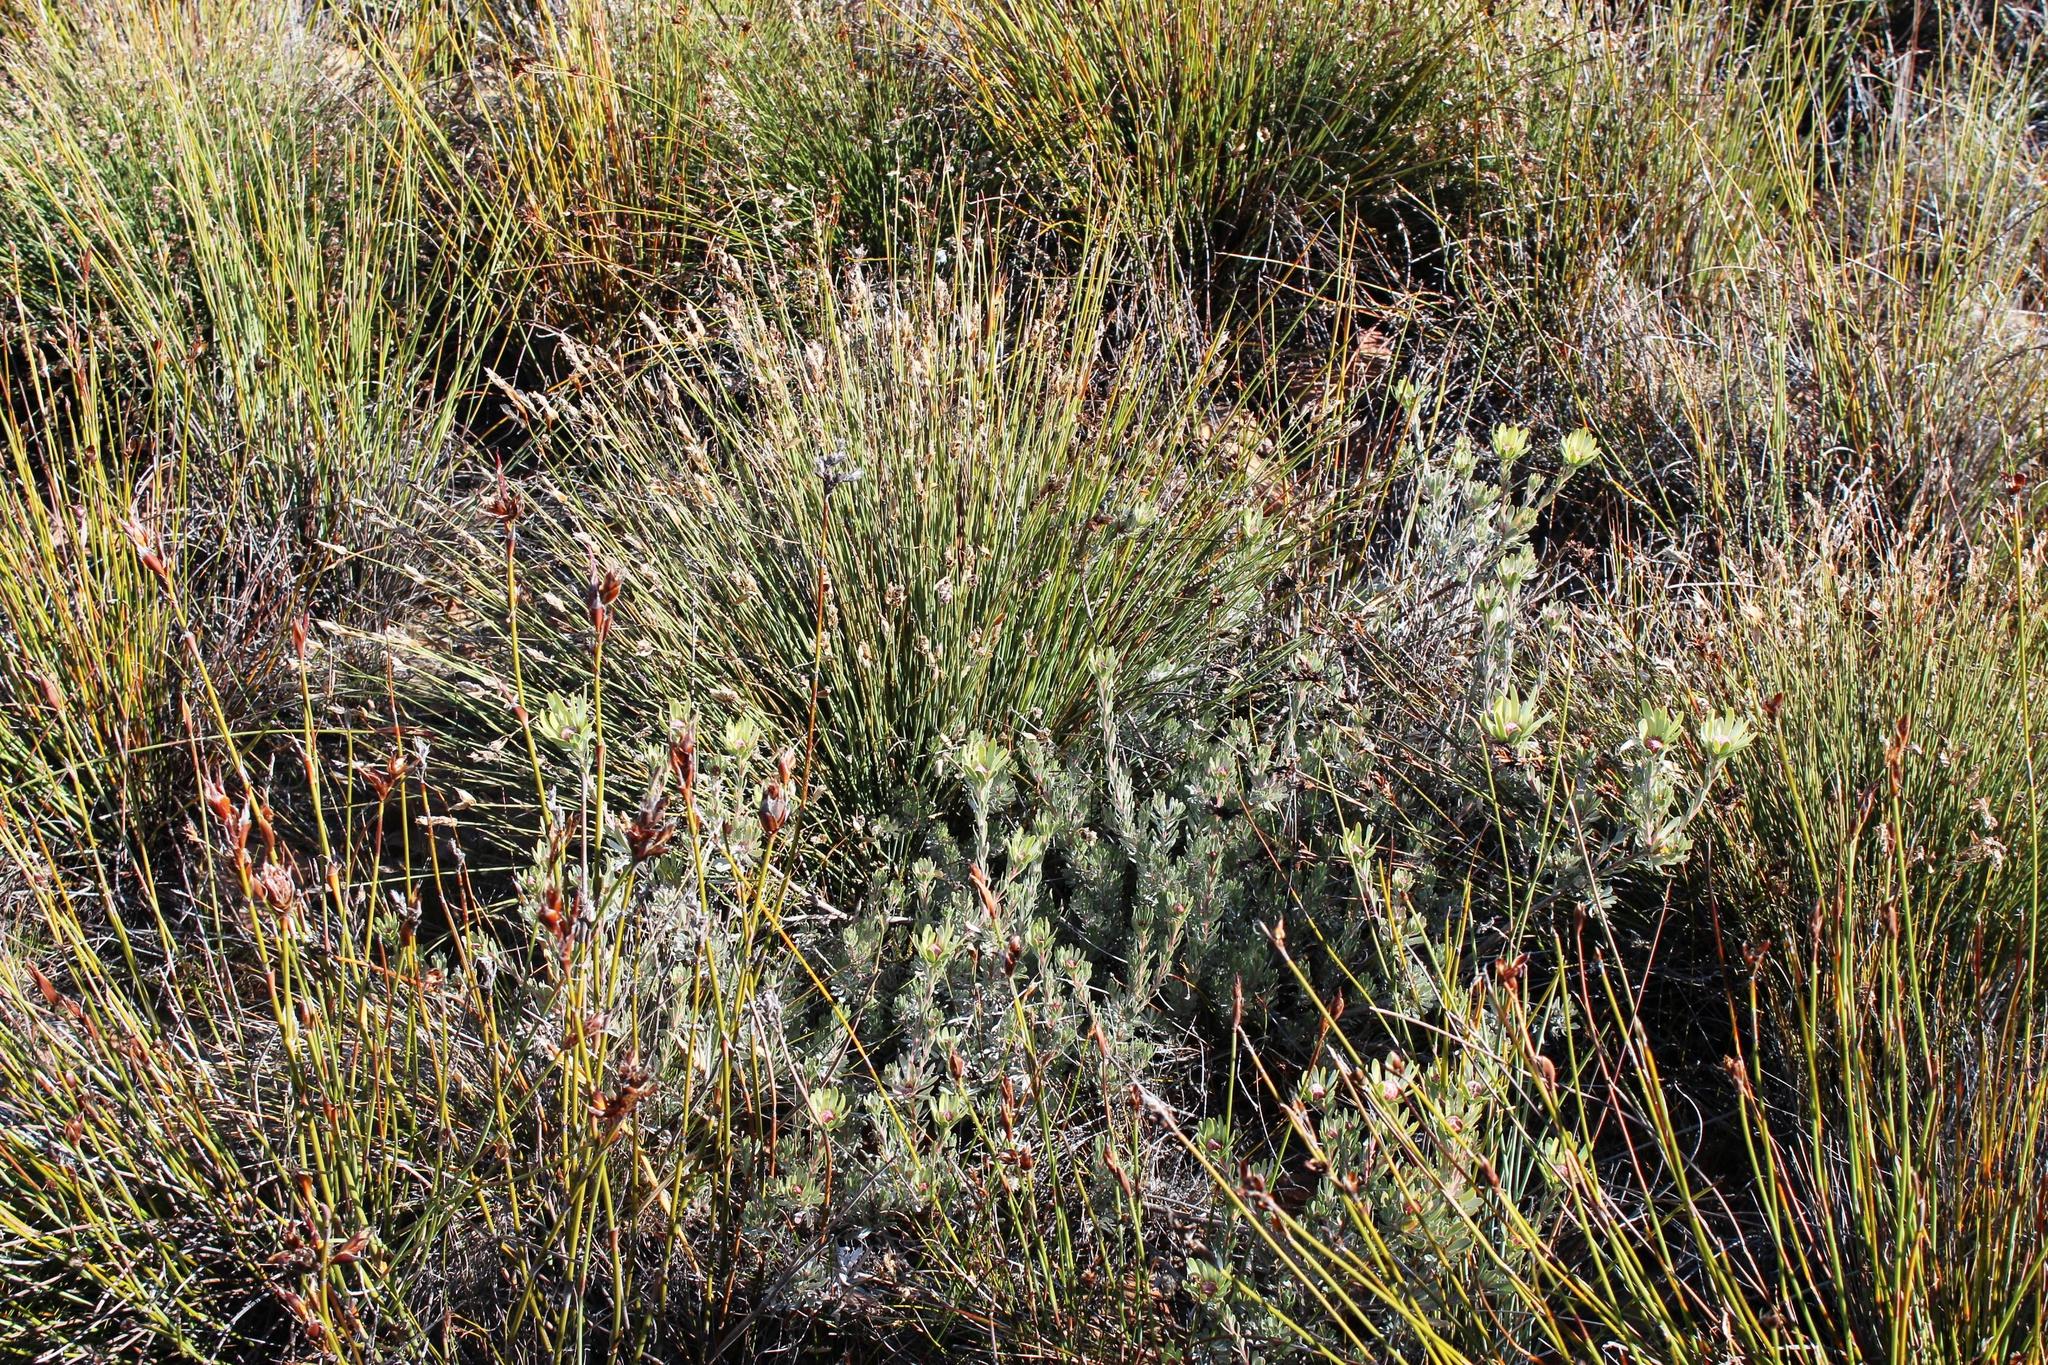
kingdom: Plantae
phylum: Tracheophyta
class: Magnoliopsida
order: Proteales
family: Proteaceae
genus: Leucadendron
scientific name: Leucadendron nitidum
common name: Bokkeveld conebush
